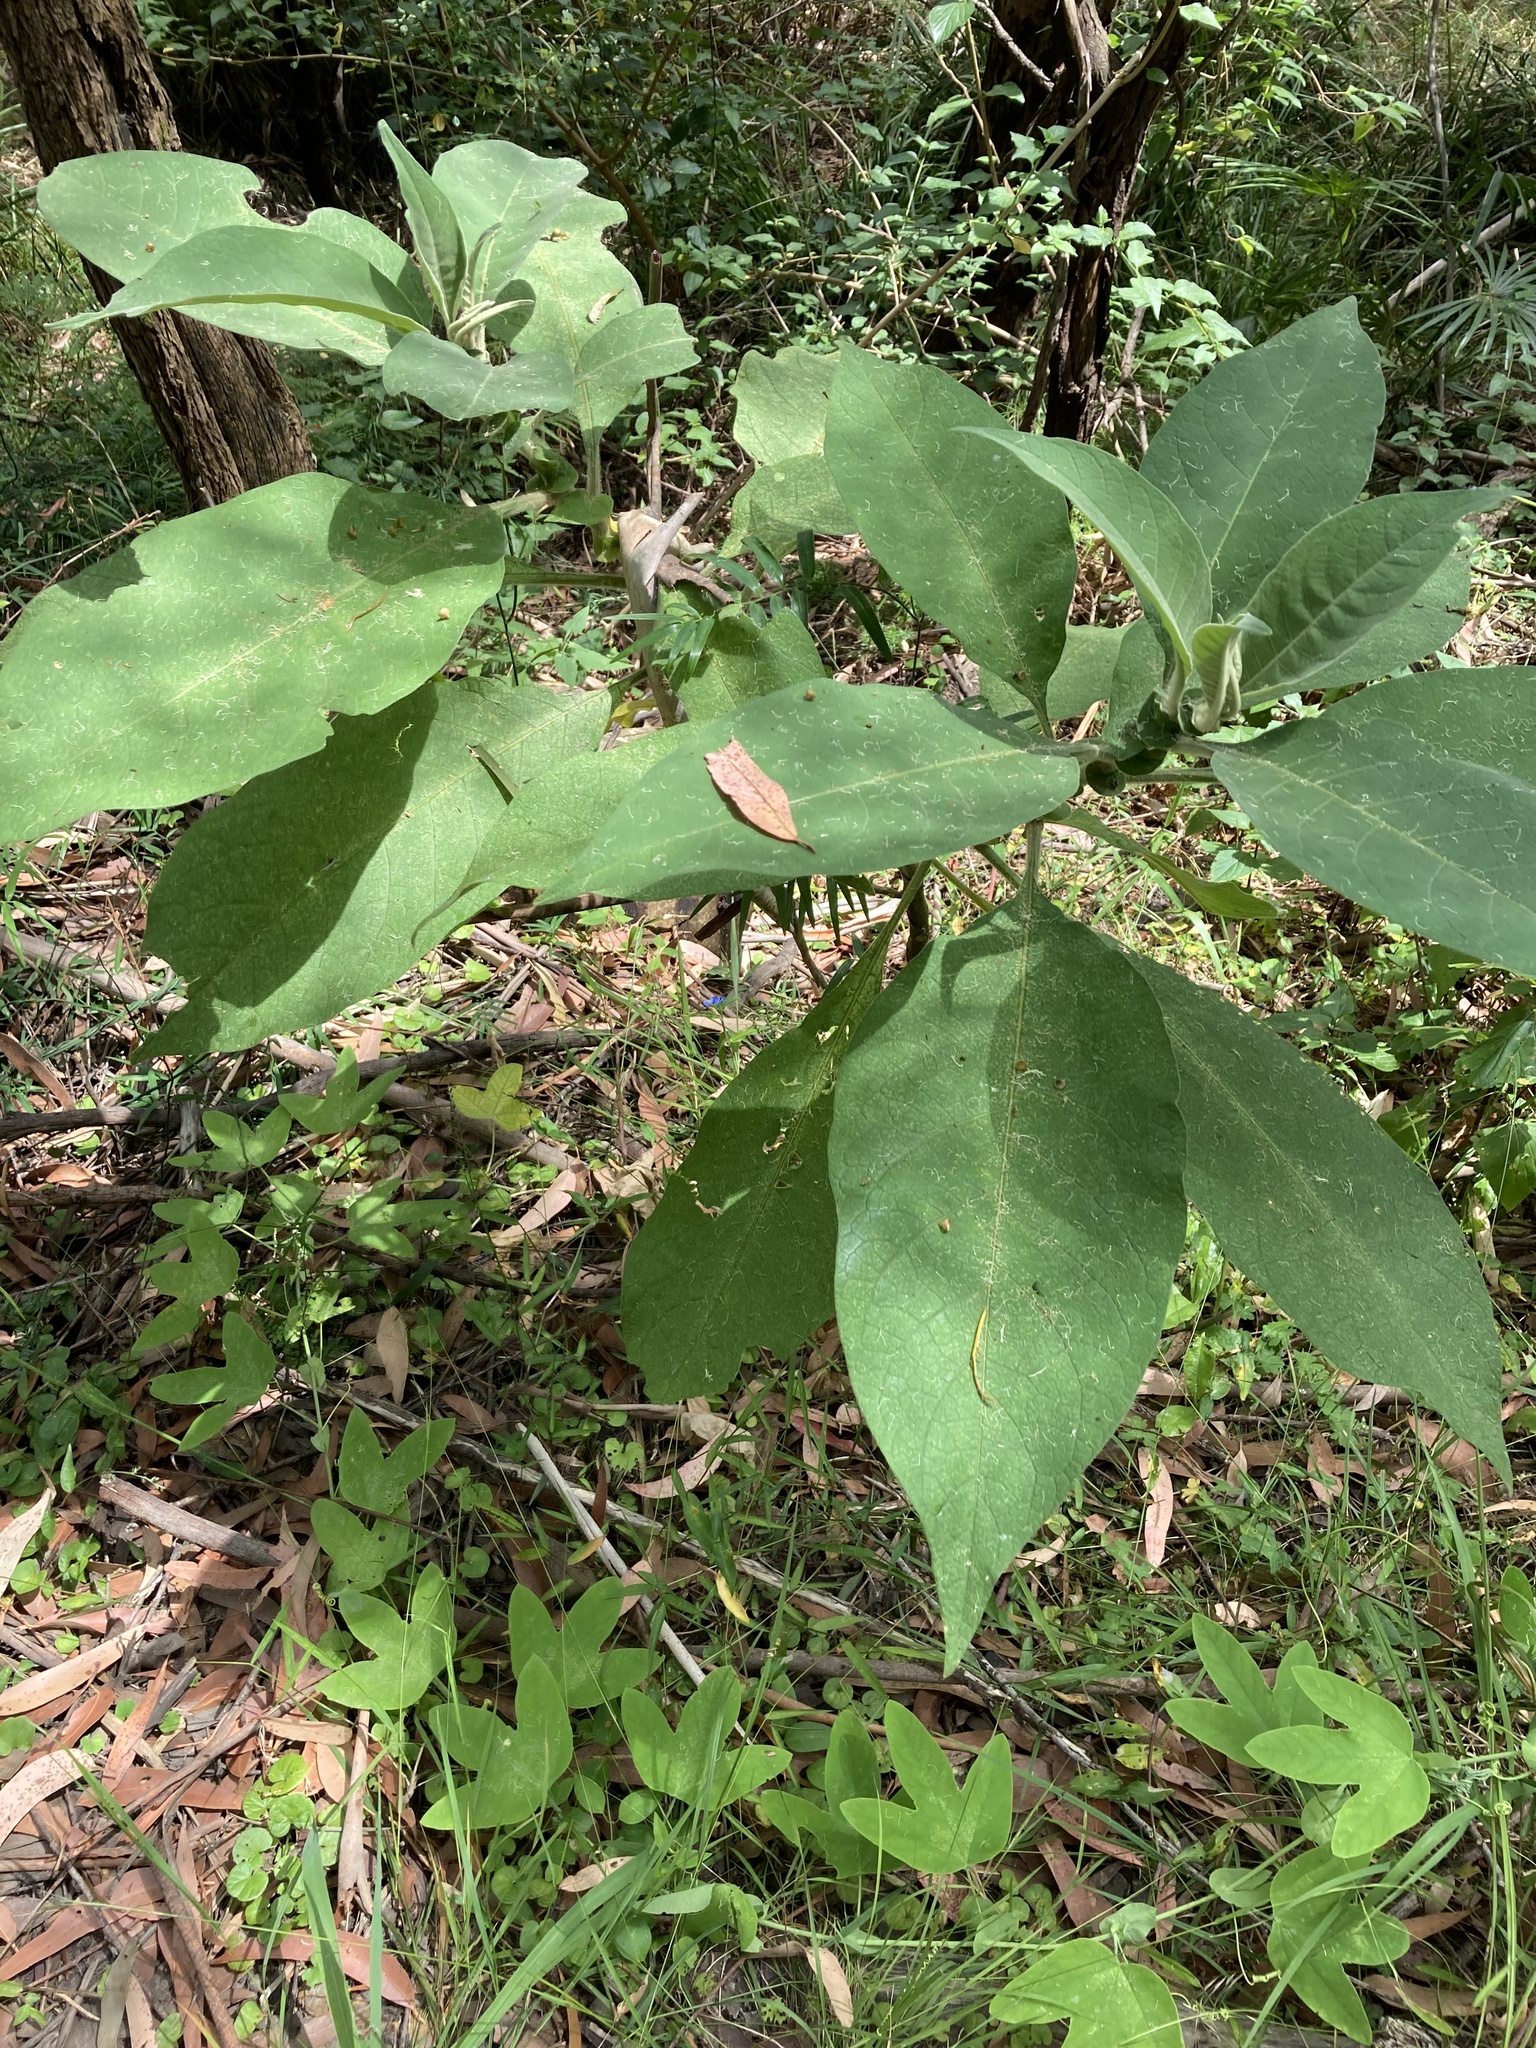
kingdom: Plantae
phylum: Tracheophyta
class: Magnoliopsida
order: Solanales
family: Solanaceae
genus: Solanum
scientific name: Solanum mauritianum
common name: Earleaf nightshade
